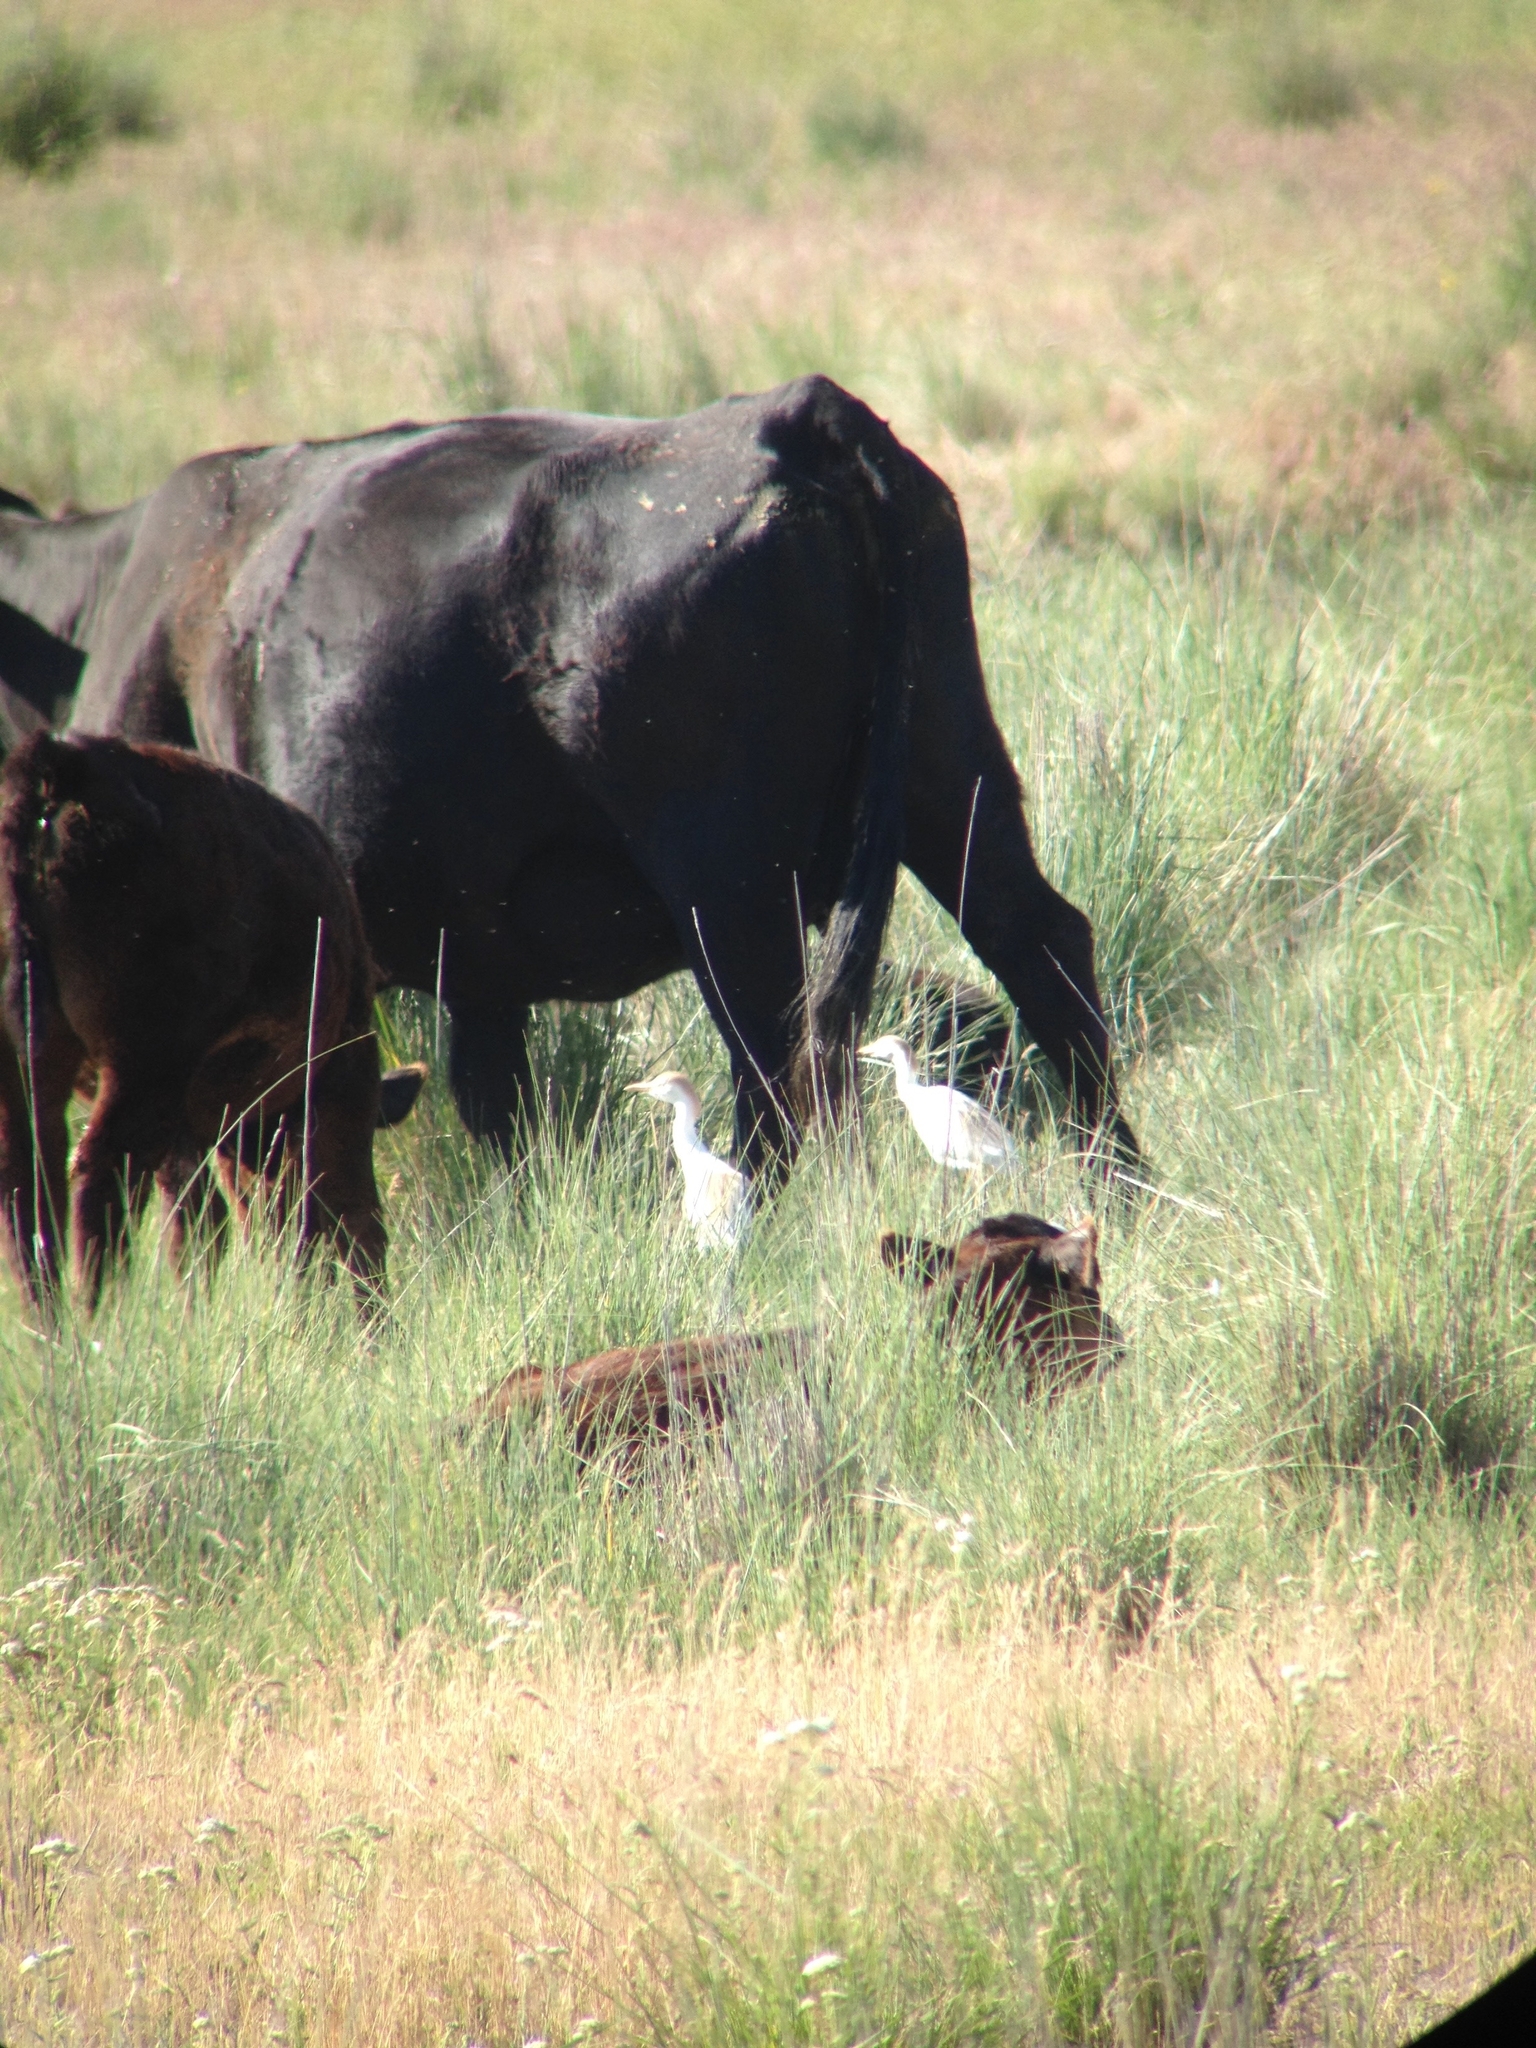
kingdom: Animalia
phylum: Chordata
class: Aves
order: Pelecaniformes
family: Ardeidae
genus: Bubulcus
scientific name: Bubulcus ibis
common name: Cattle egret
